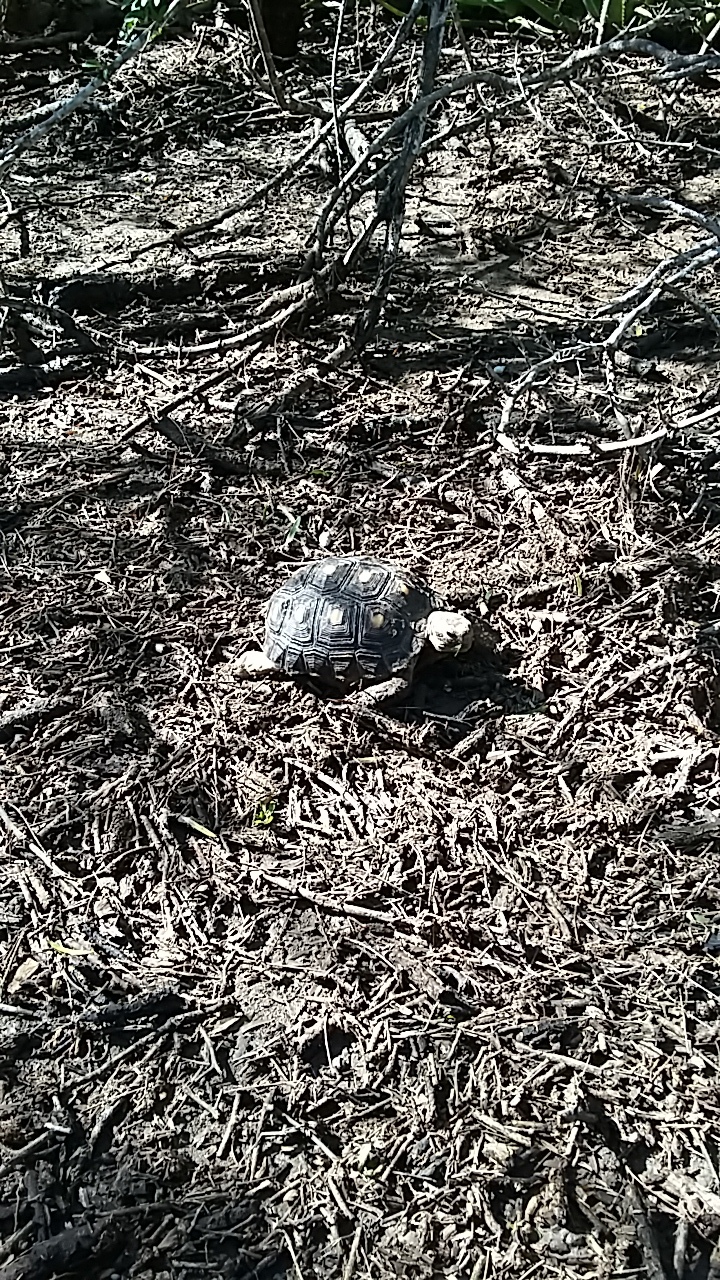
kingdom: Animalia
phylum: Chordata
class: Testudines
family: Testudinidae
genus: Gopherus
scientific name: Gopherus berlandieri
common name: Texas (gopher )tortoise
